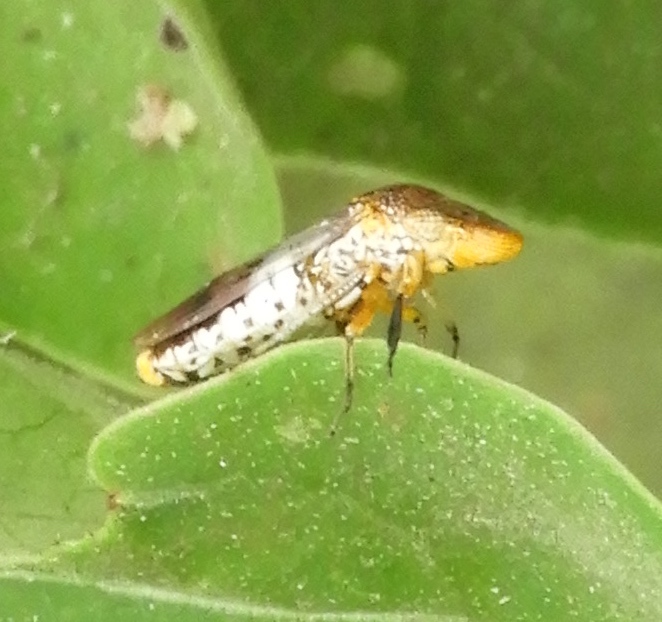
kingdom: Animalia
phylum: Arthropoda
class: Insecta
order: Hemiptera
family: Cicadellidae
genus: Homalodisca
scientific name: Homalodisca
